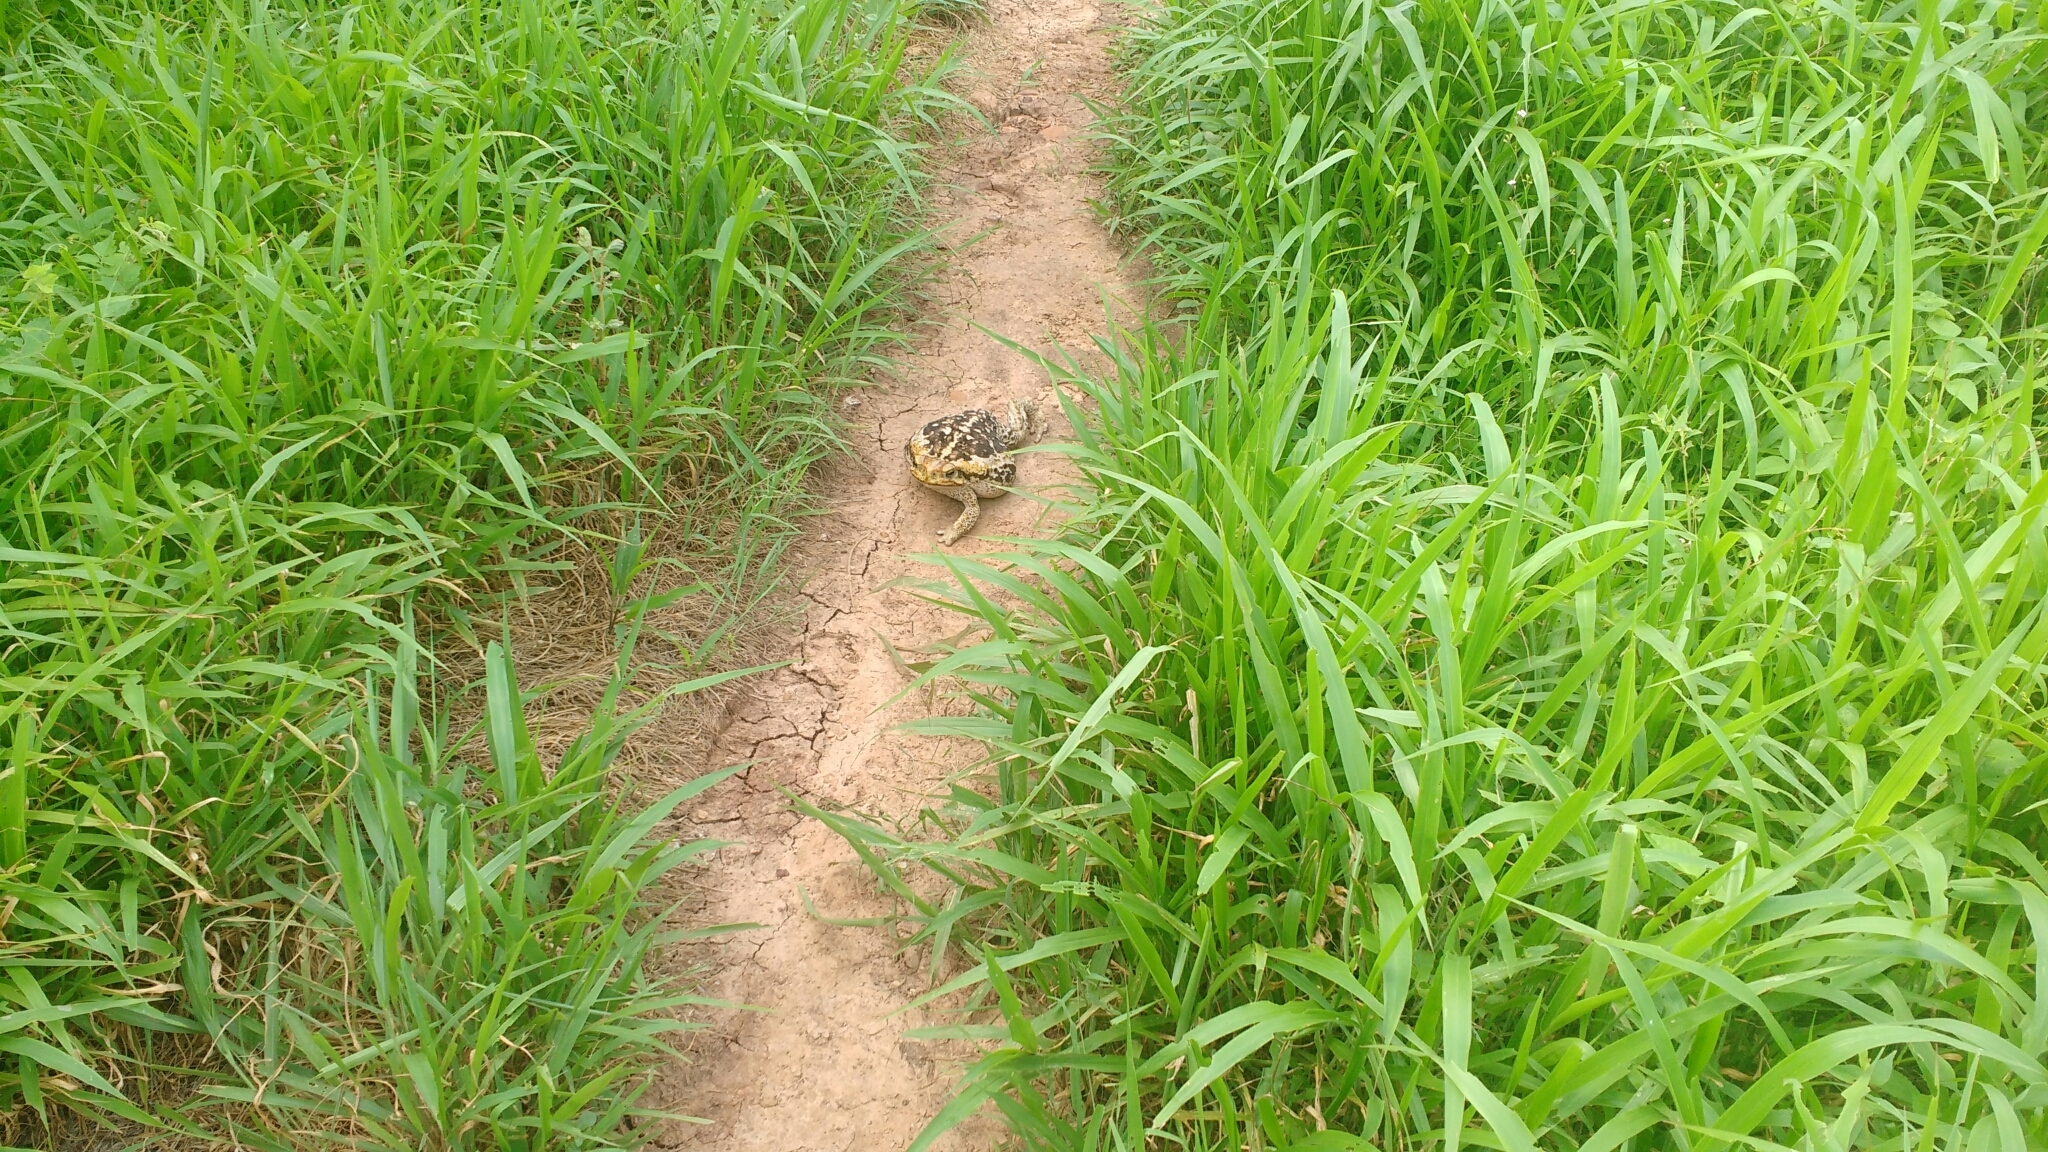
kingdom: Animalia
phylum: Chordata
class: Amphibia
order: Anura
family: Bufonidae
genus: Rhinella
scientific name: Rhinella diptycha
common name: Cope's toad
